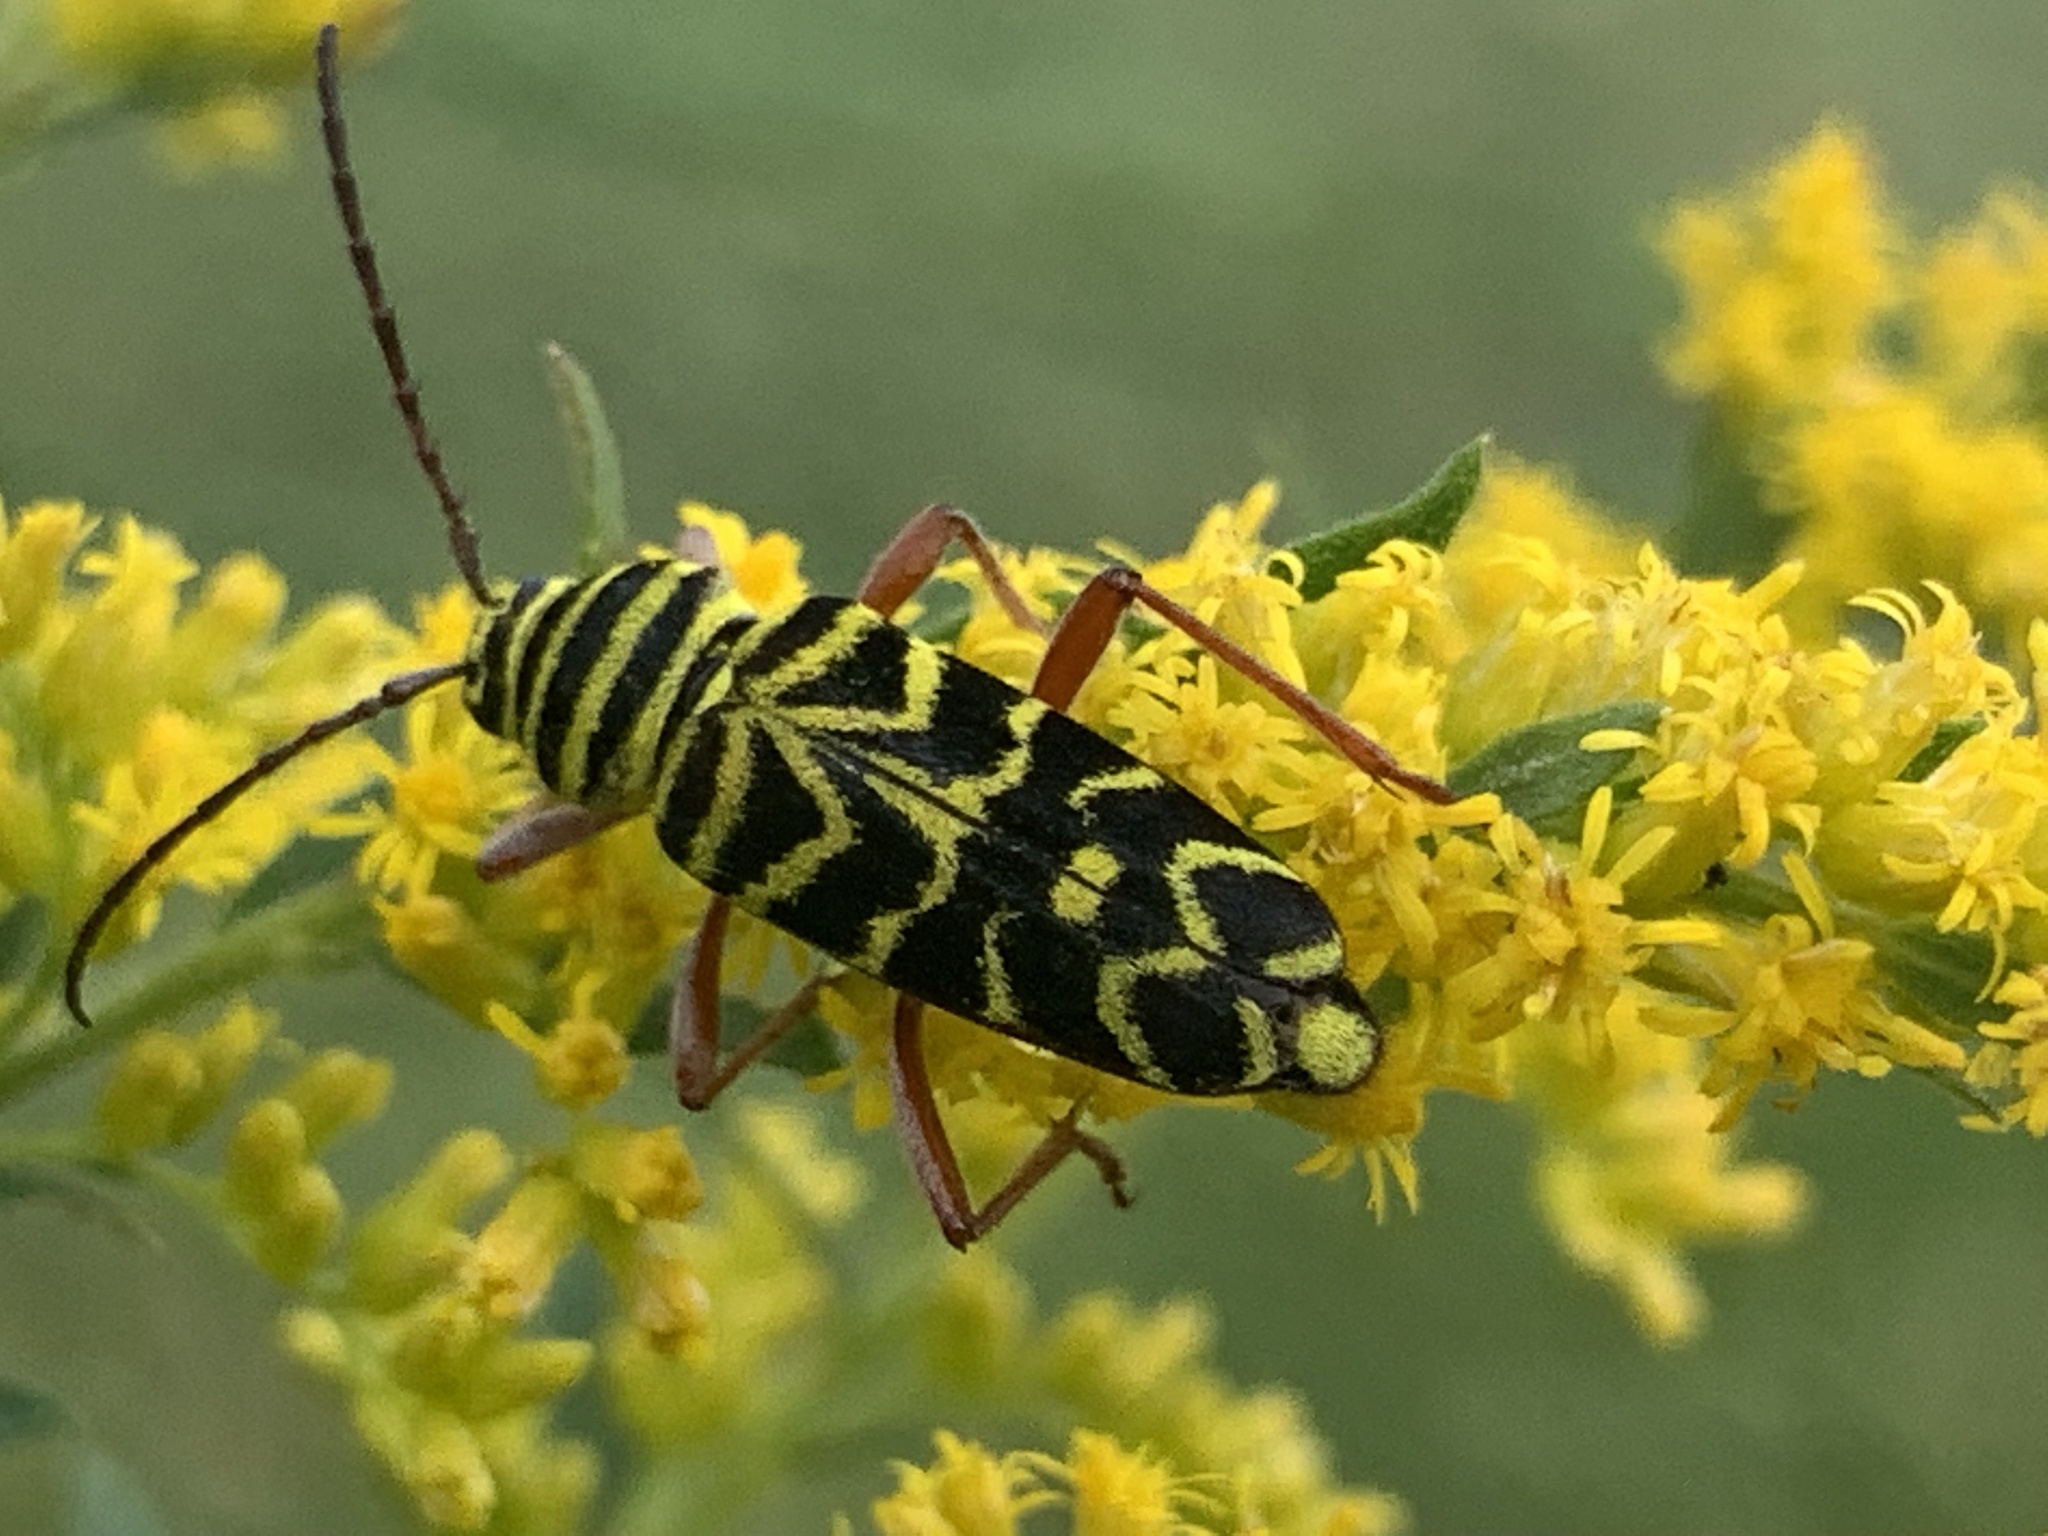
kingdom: Animalia
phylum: Arthropoda
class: Insecta
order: Coleoptera
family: Cerambycidae
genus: Megacyllene
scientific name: Megacyllene robiniae
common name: Locust borer
